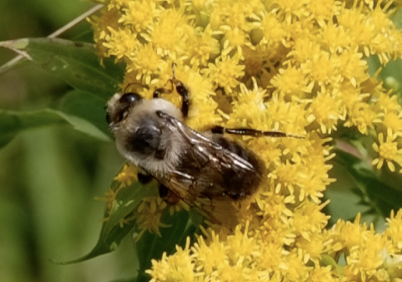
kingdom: Animalia
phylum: Arthropoda
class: Insecta
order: Hymenoptera
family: Apidae
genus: Bombus
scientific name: Bombus griseocollis
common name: Brown-belted bumble bee
